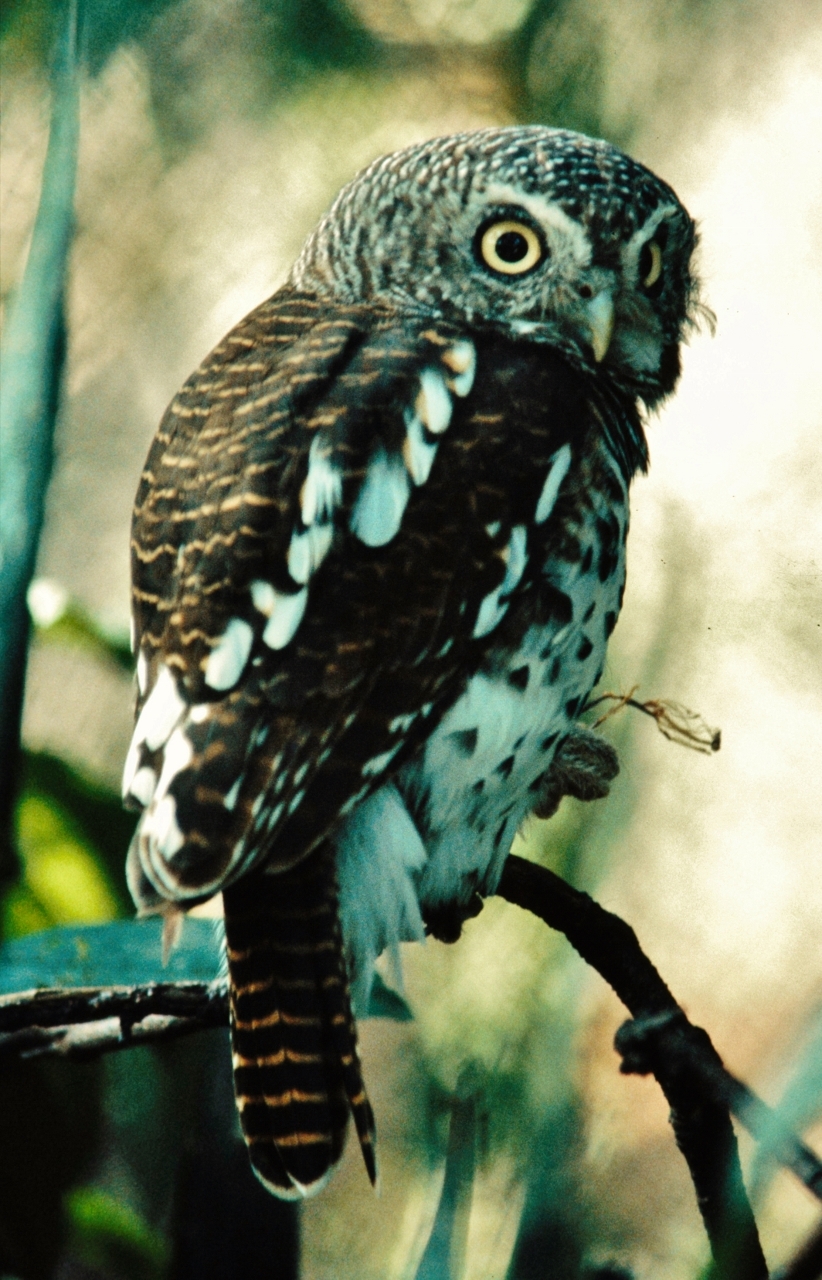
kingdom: Animalia
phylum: Chordata
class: Aves
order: Strigiformes
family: Strigidae
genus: Glaucidium
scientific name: Glaucidium capense
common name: African barred owlet
